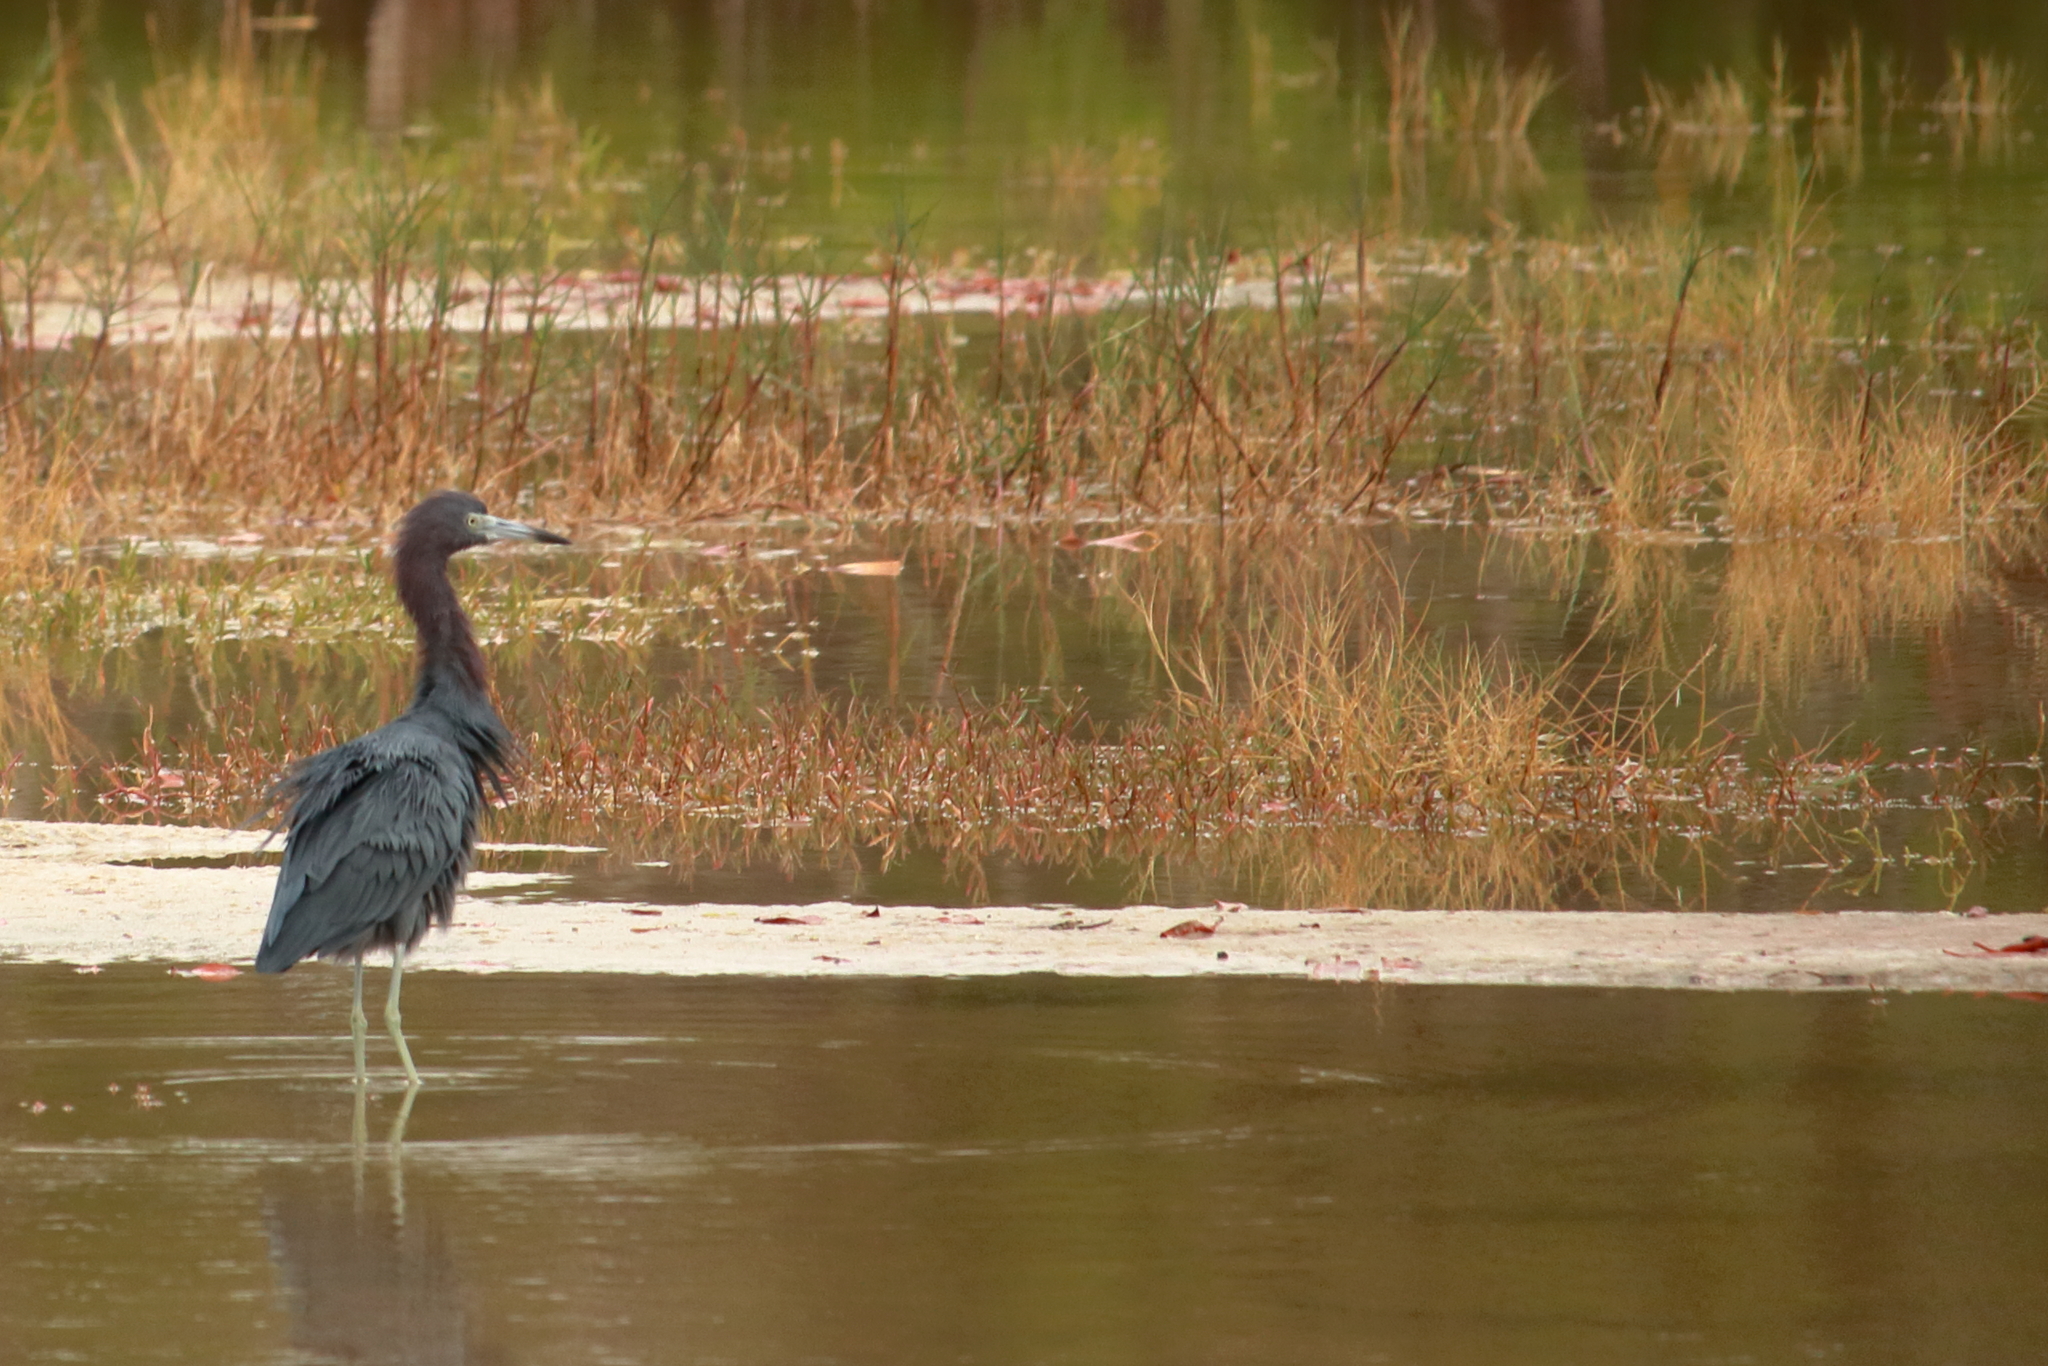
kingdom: Animalia
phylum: Chordata
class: Aves
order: Pelecaniformes
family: Ardeidae
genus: Egretta
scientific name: Egretta caerulea
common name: Little blue heron
